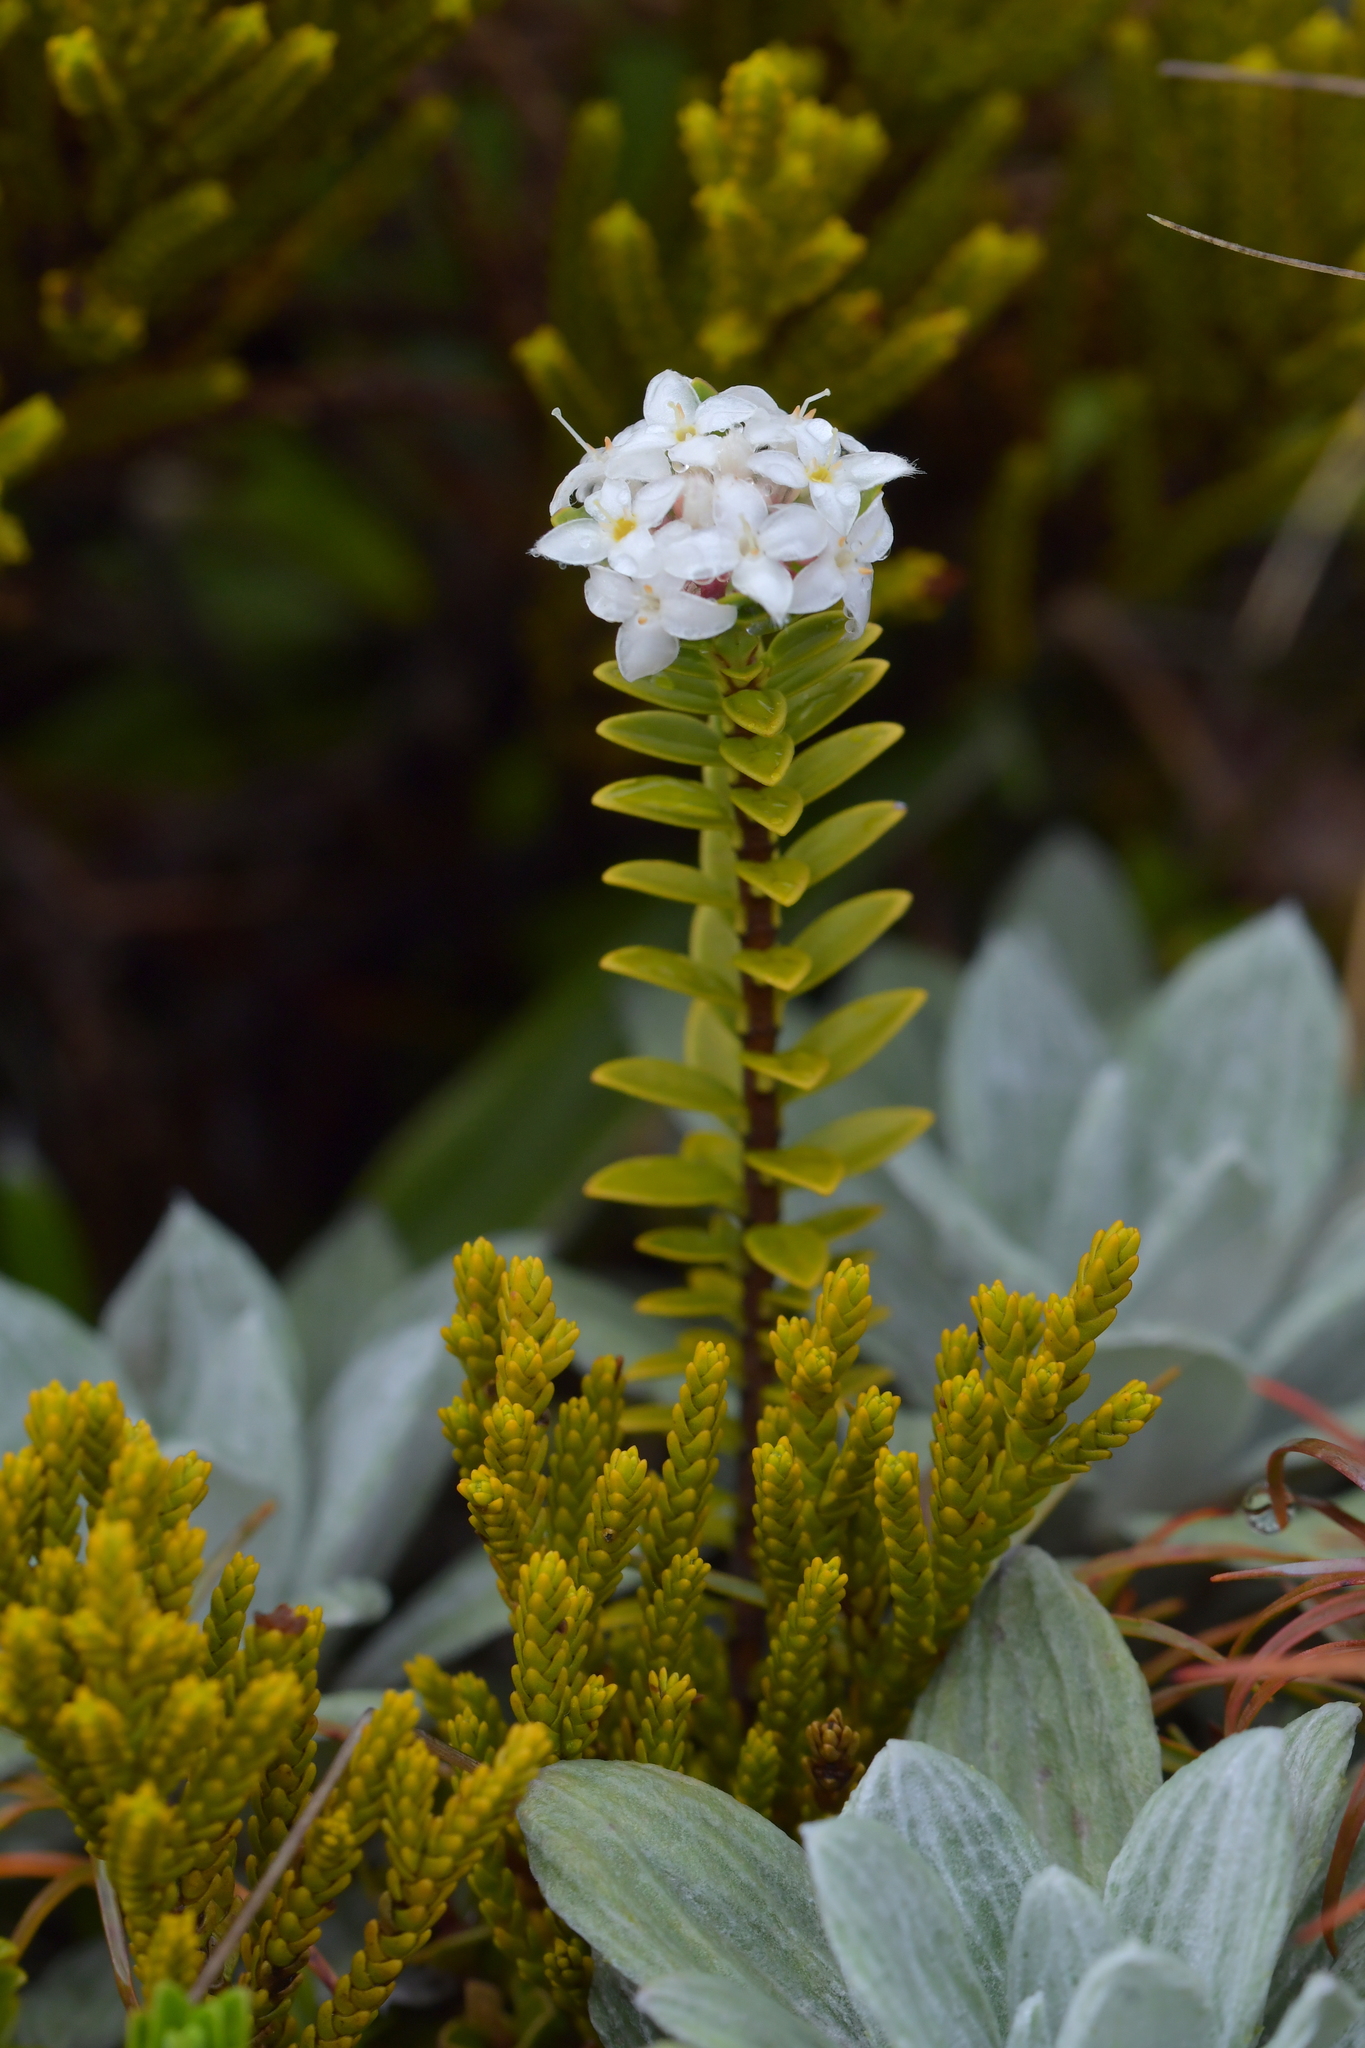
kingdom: Plantae
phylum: Tracheophyta
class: Magnoliopsida
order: Malvales
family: Thymelaeaceae
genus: Pimelea
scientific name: Pimelea buxifolia
